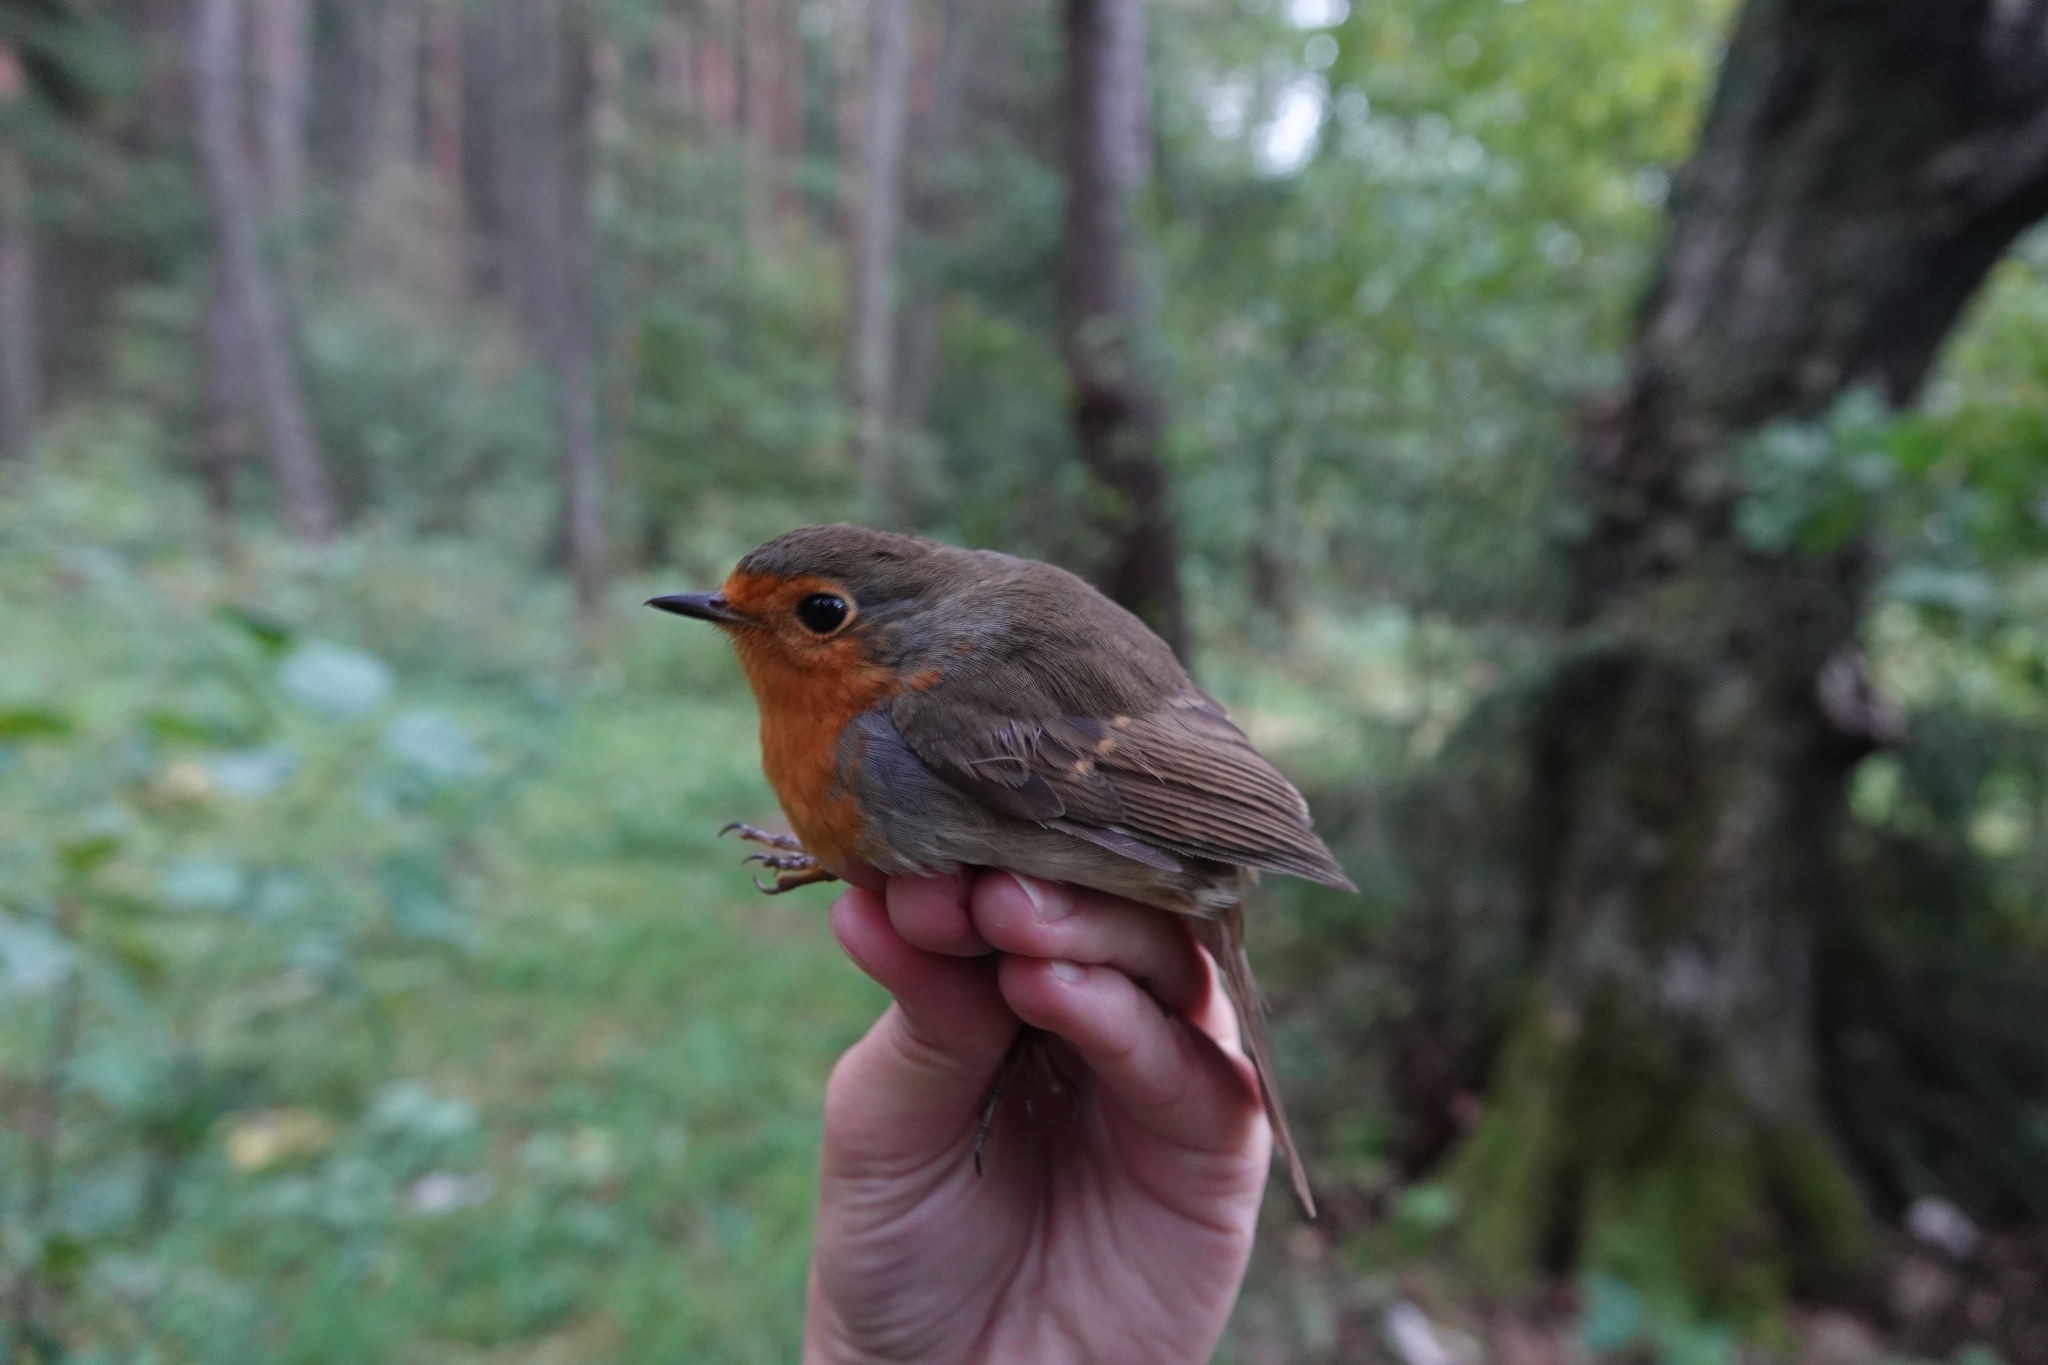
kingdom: Animalia
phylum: Chordata
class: Aves
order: Passeriformes
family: Muscicapidae
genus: Erithacus
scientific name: Erithacus rubecula
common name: European robin
